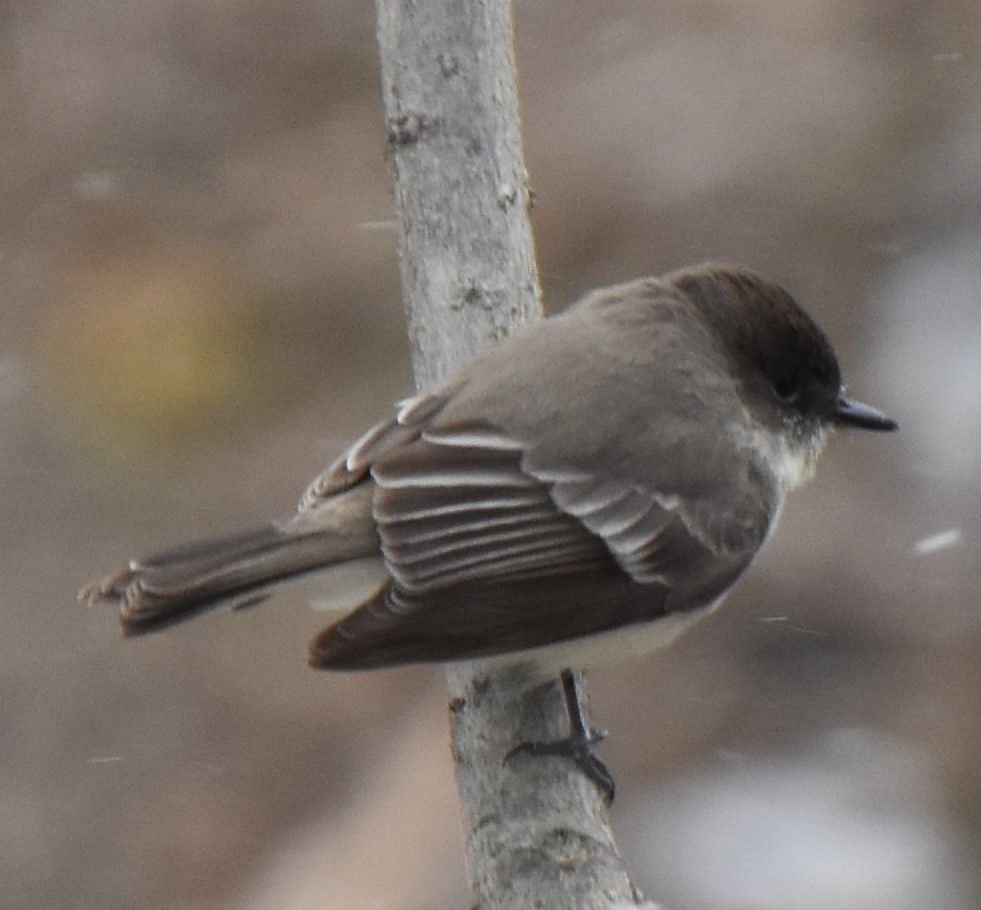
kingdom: Animalia
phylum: Chordata
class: Aves
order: Passeriformes
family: Tyrannidae
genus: Sayornis
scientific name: Sayornis phoebe
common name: Eastern phoebe
